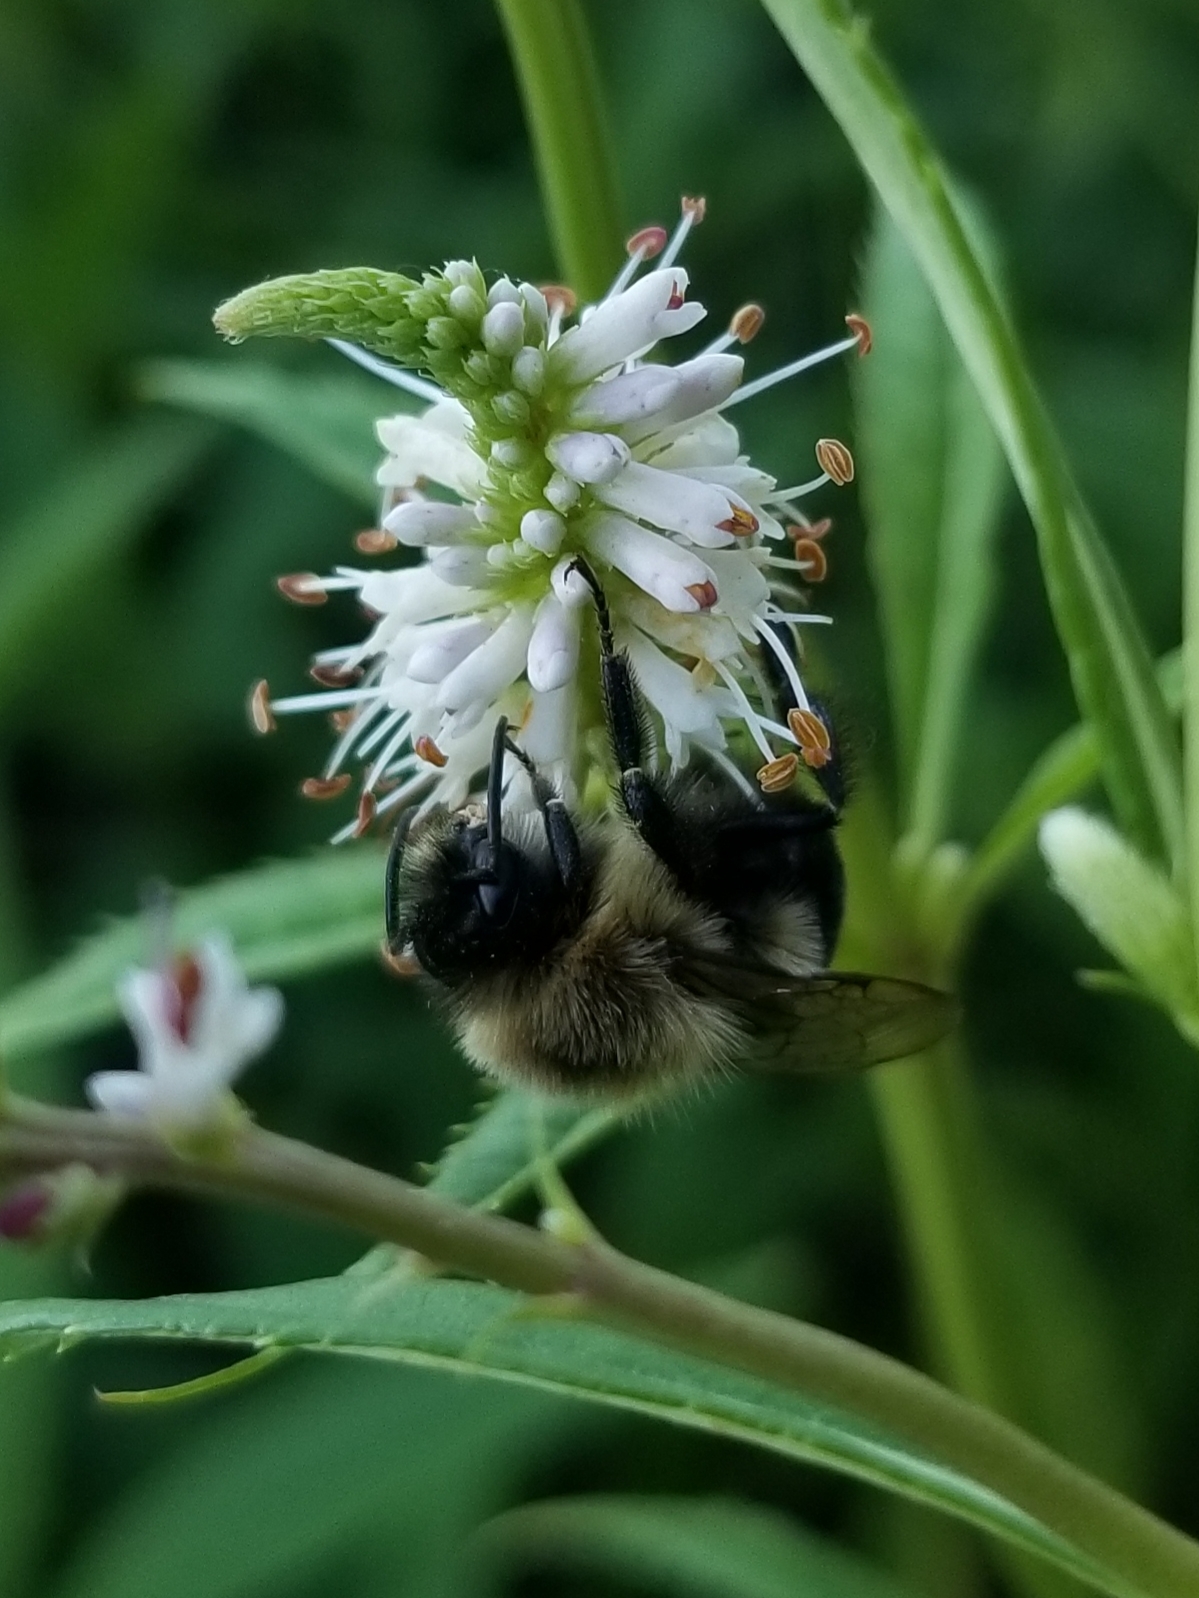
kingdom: Animalia
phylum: Arthropoda
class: Insecta
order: Hymenoptera
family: Apidae
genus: Bombus
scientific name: Bombus impatiens
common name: Common eastern bumble bee
